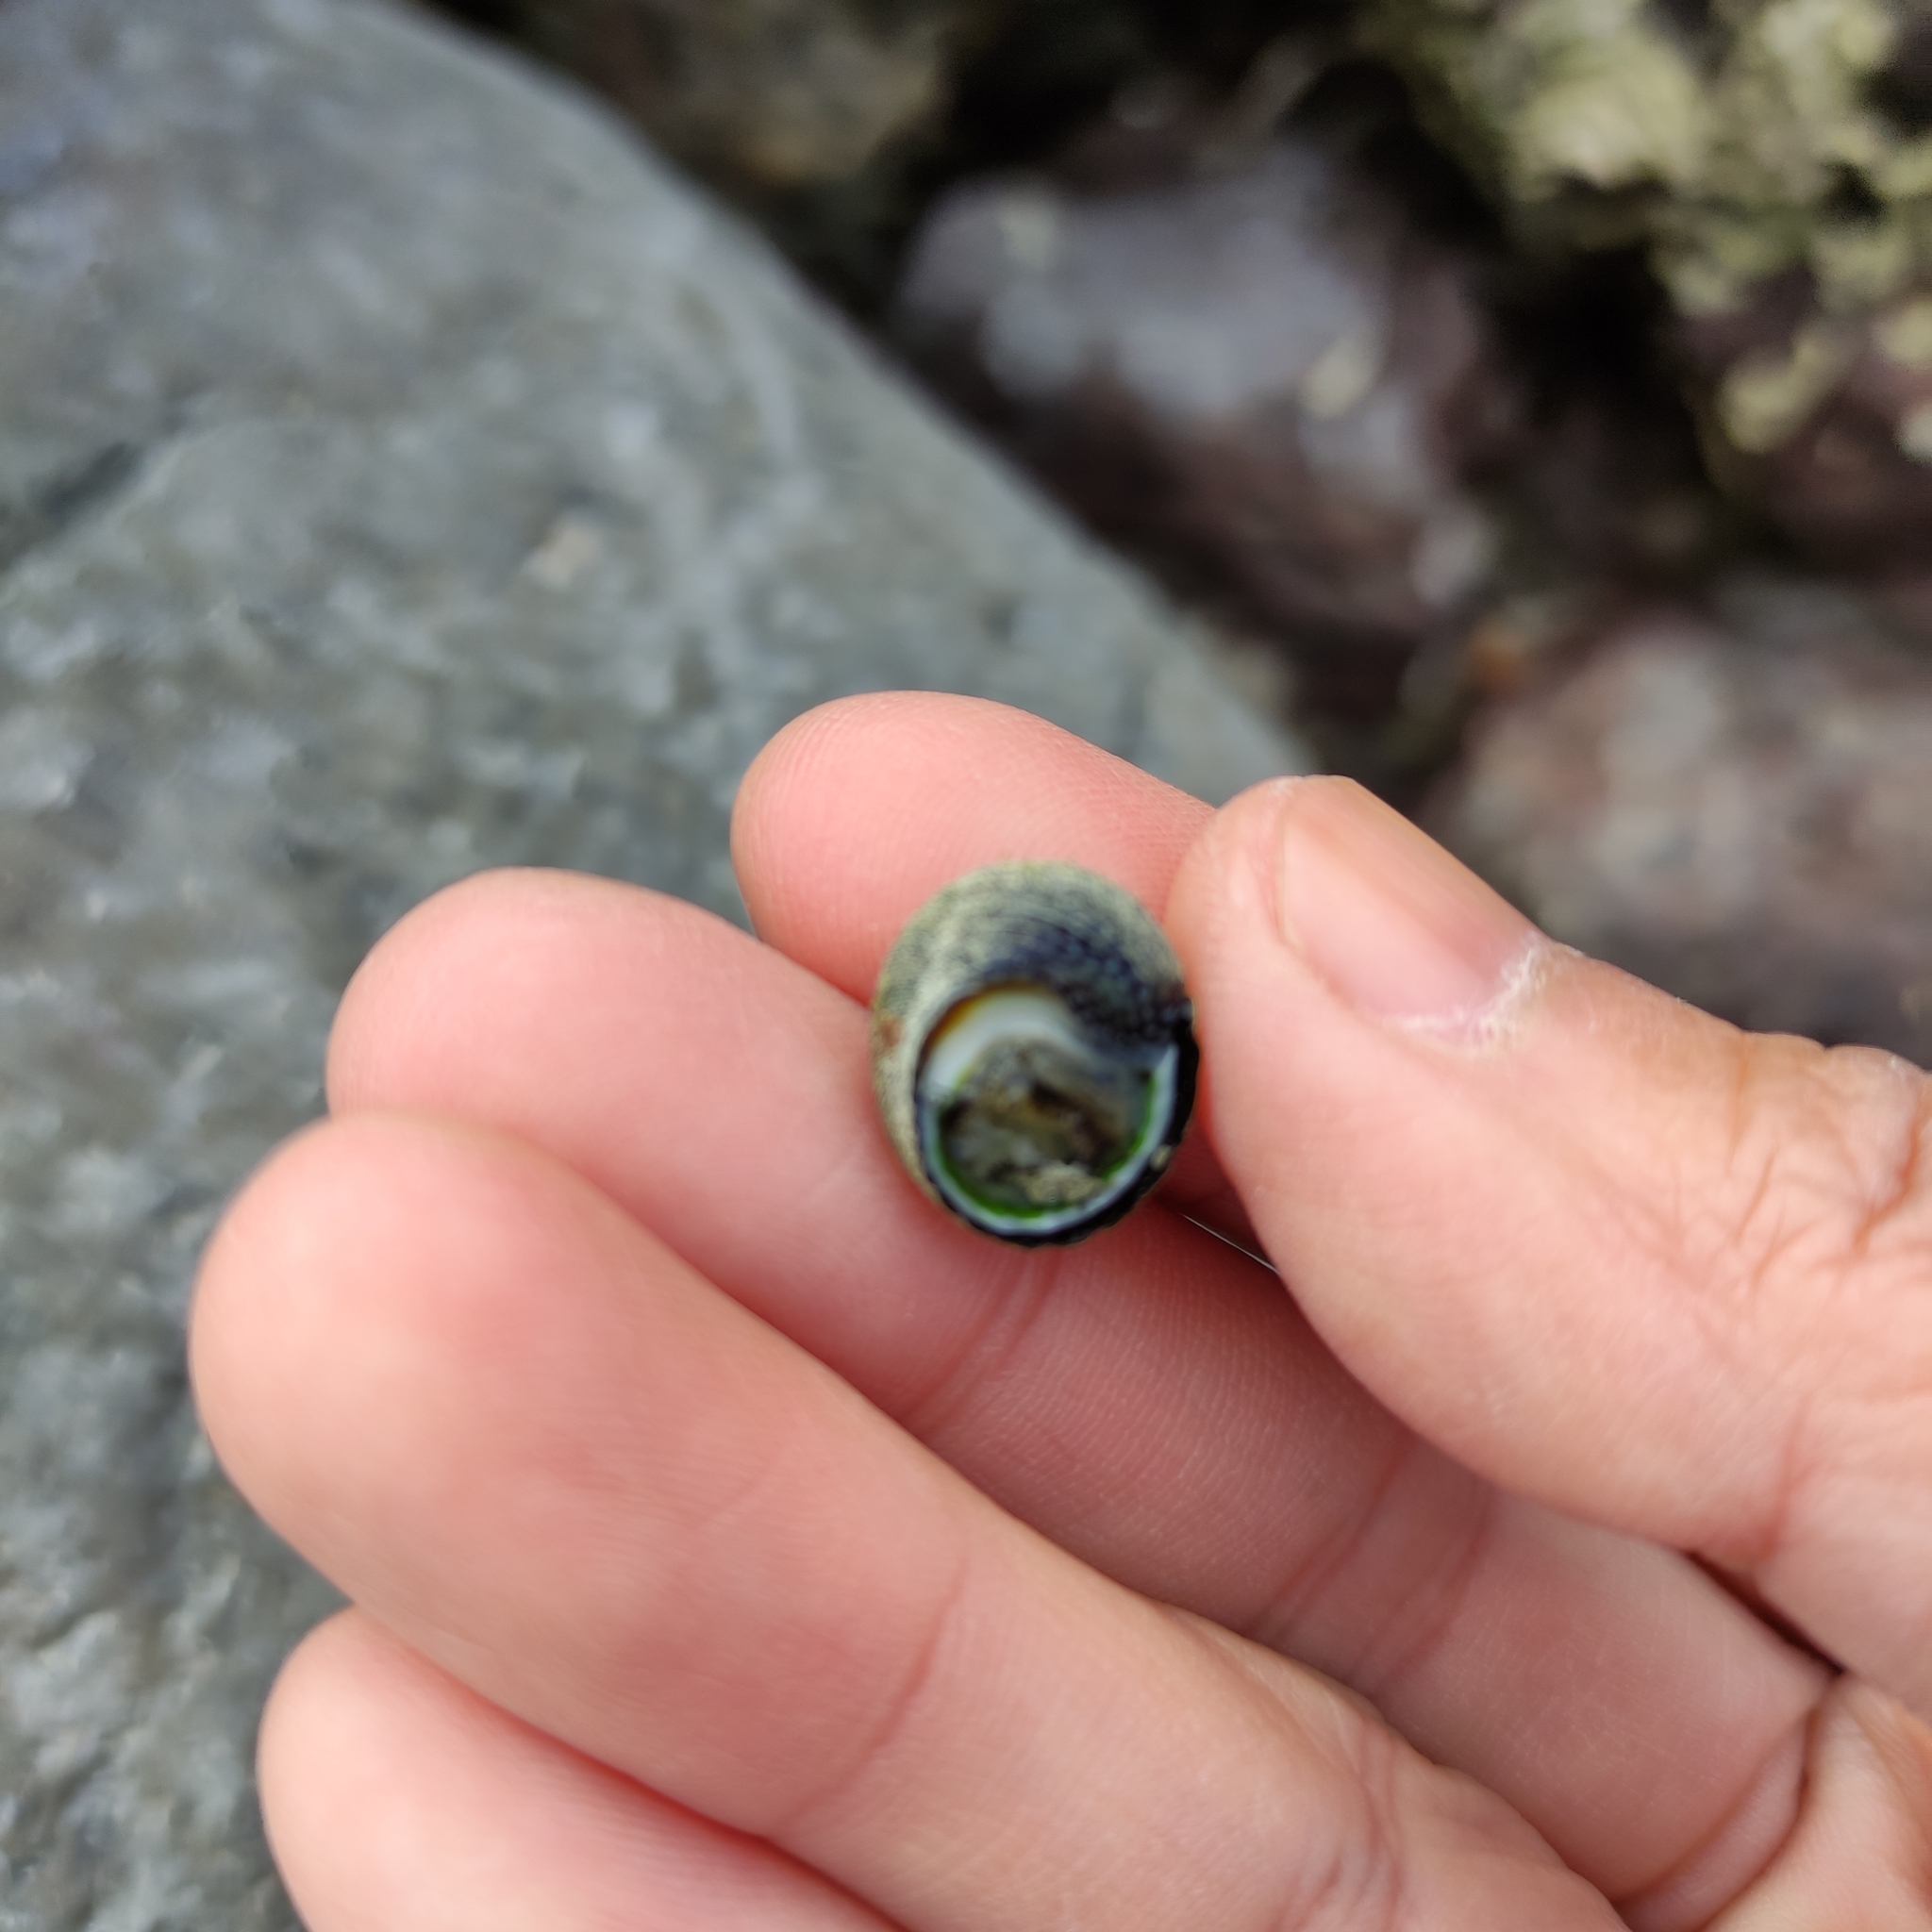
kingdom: Animalia
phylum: Mollusca
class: Gastropoda
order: Trochida
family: Trochidae
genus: Diloma
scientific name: Diloma aethiops
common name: Scorched monodont
